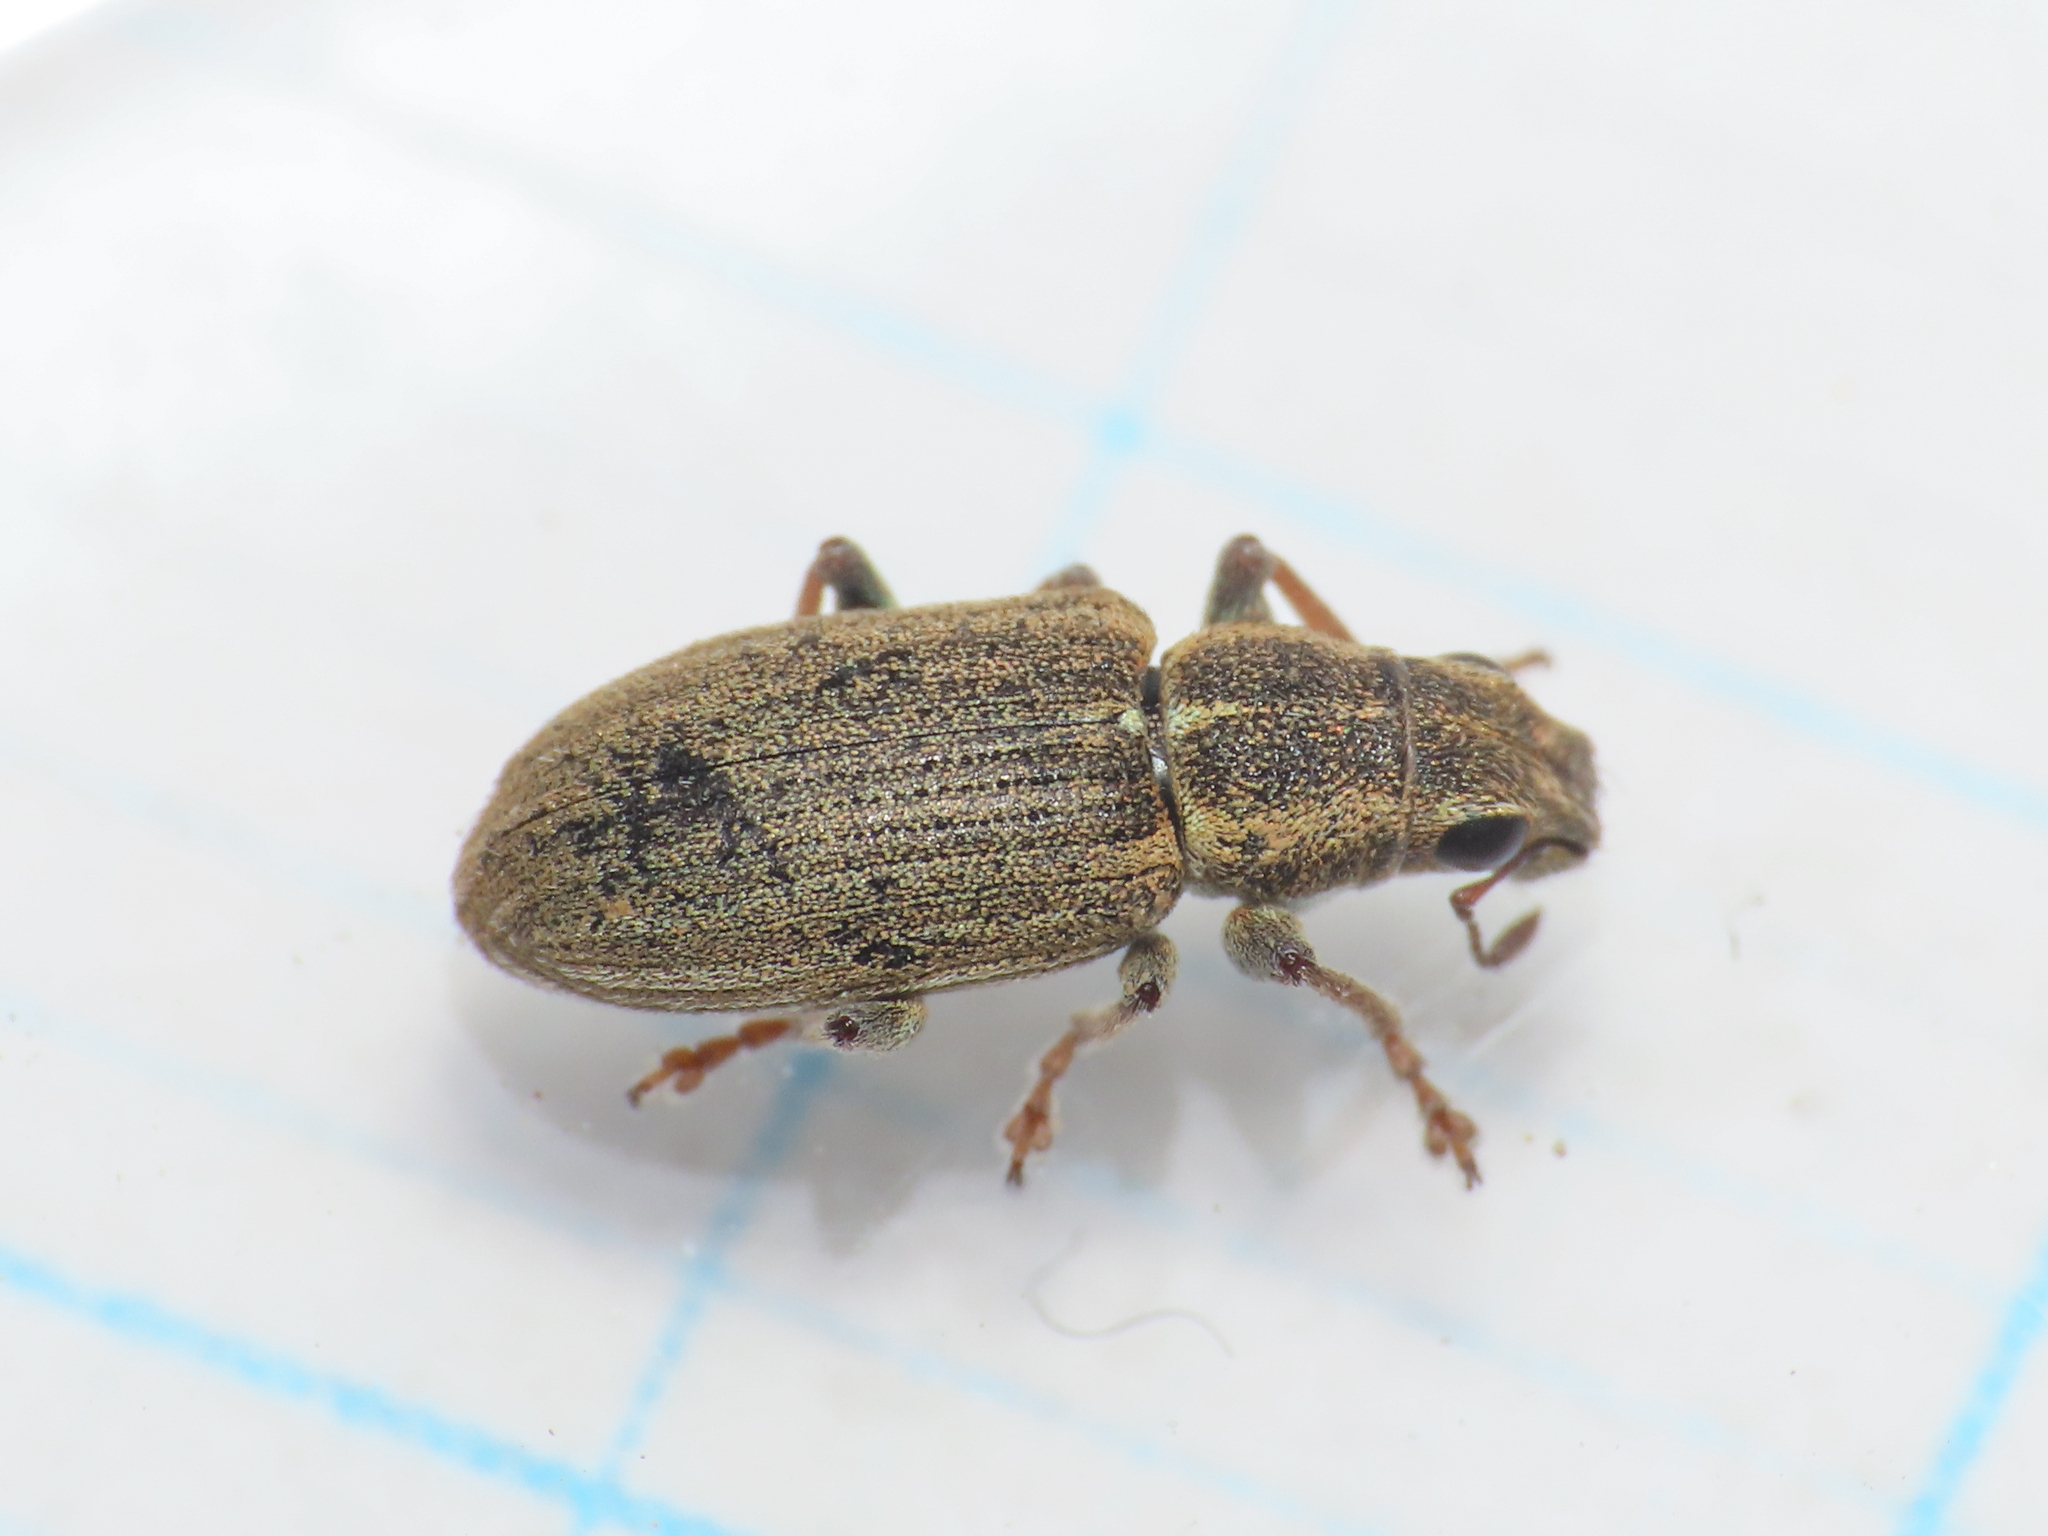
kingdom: Animalia
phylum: Arthropoda
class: Insecta
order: Coleoptera
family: Curculionidae
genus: Sitona
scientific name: Sitona lineatus
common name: Weevil
